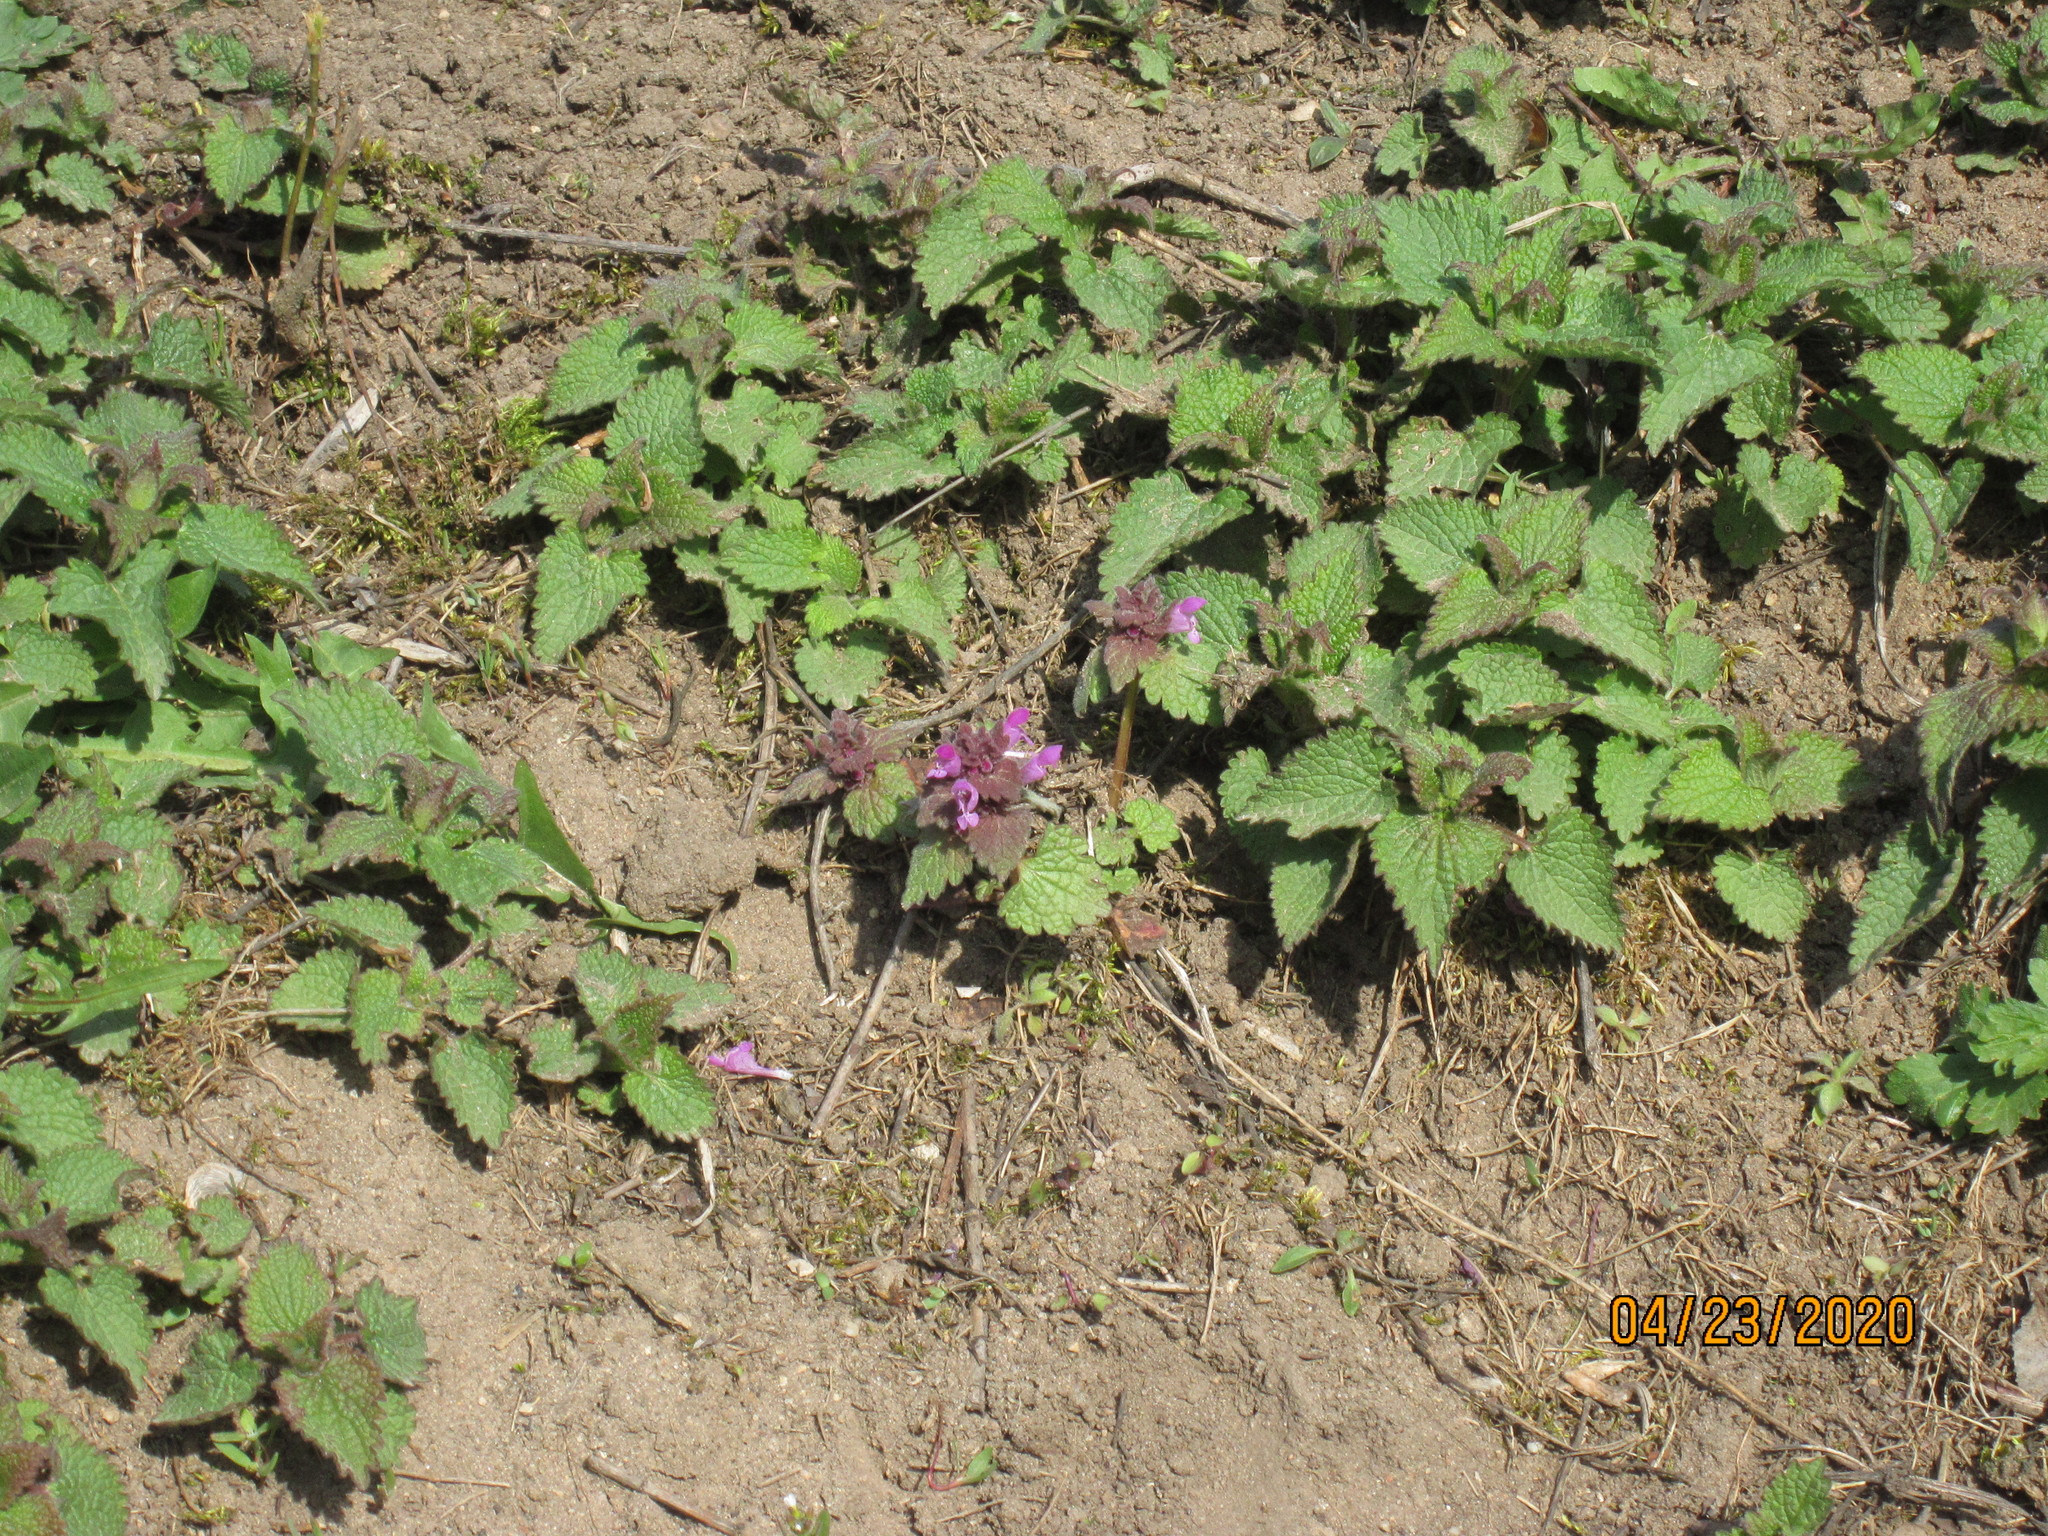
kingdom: Plantae
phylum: Tracheophyta
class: Magnoliopsida
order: Lamiales
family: Lamiaceae
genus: Lamium
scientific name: Lamium purpureum
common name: Red dead-nettle
